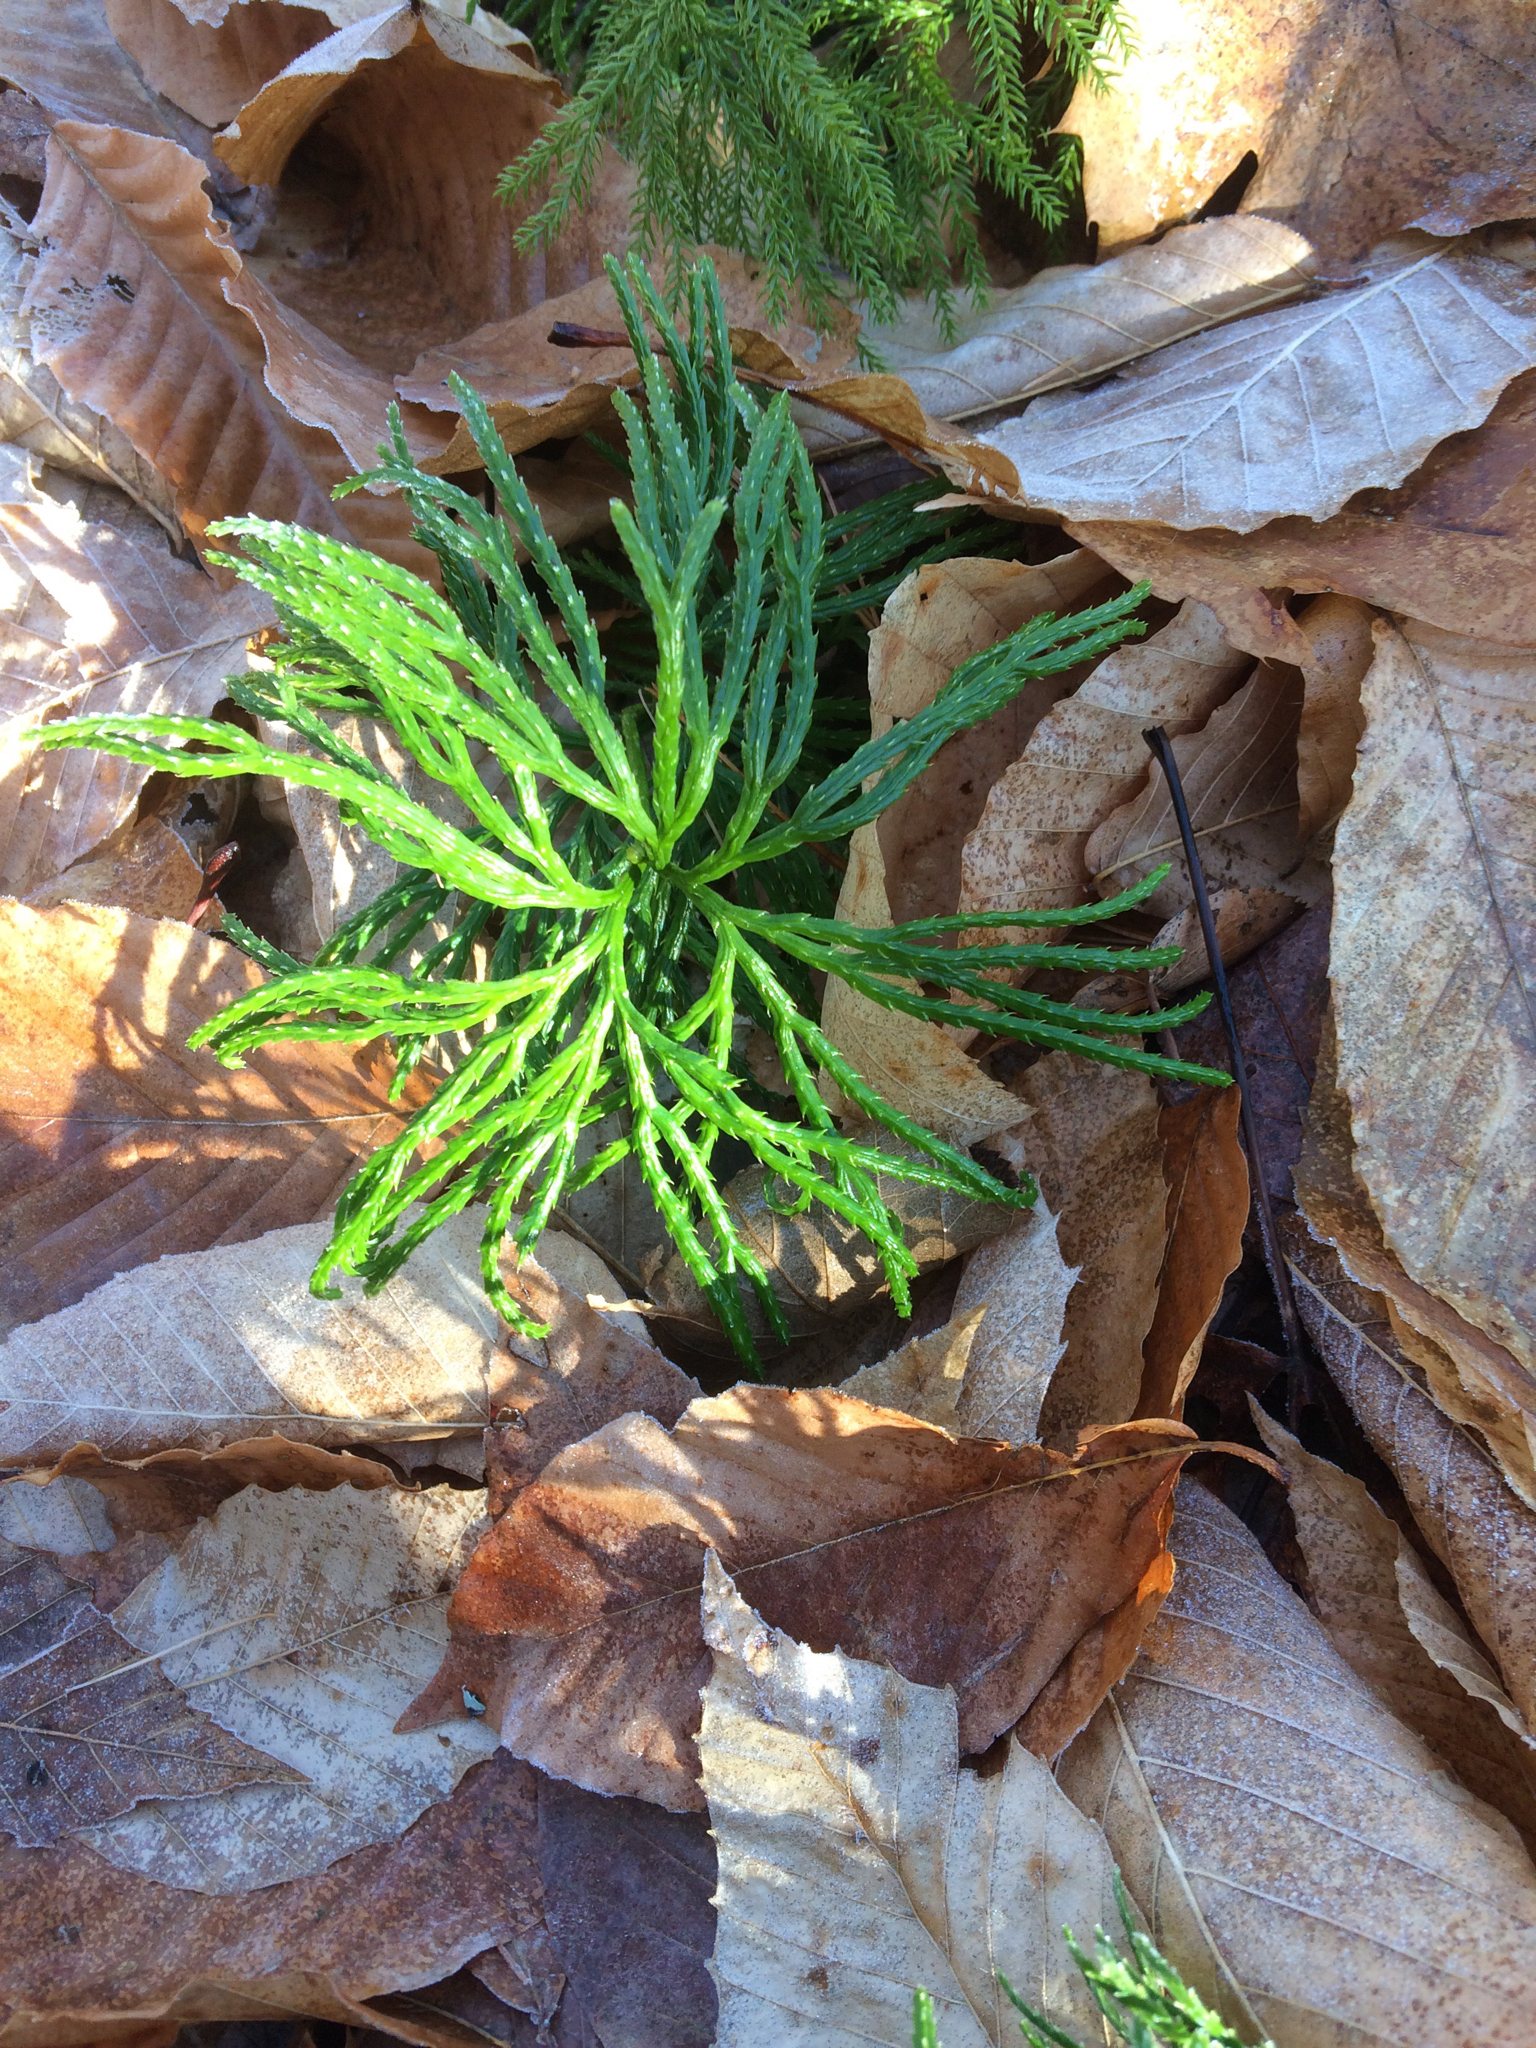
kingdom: Plantae
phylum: Tracheophyta
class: Lycopodiopsida
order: Lycopodiales
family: Lycopodiaceae
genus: Diphasiastrum
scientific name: Diphasiastrum digitatum
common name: Southern running-pine
